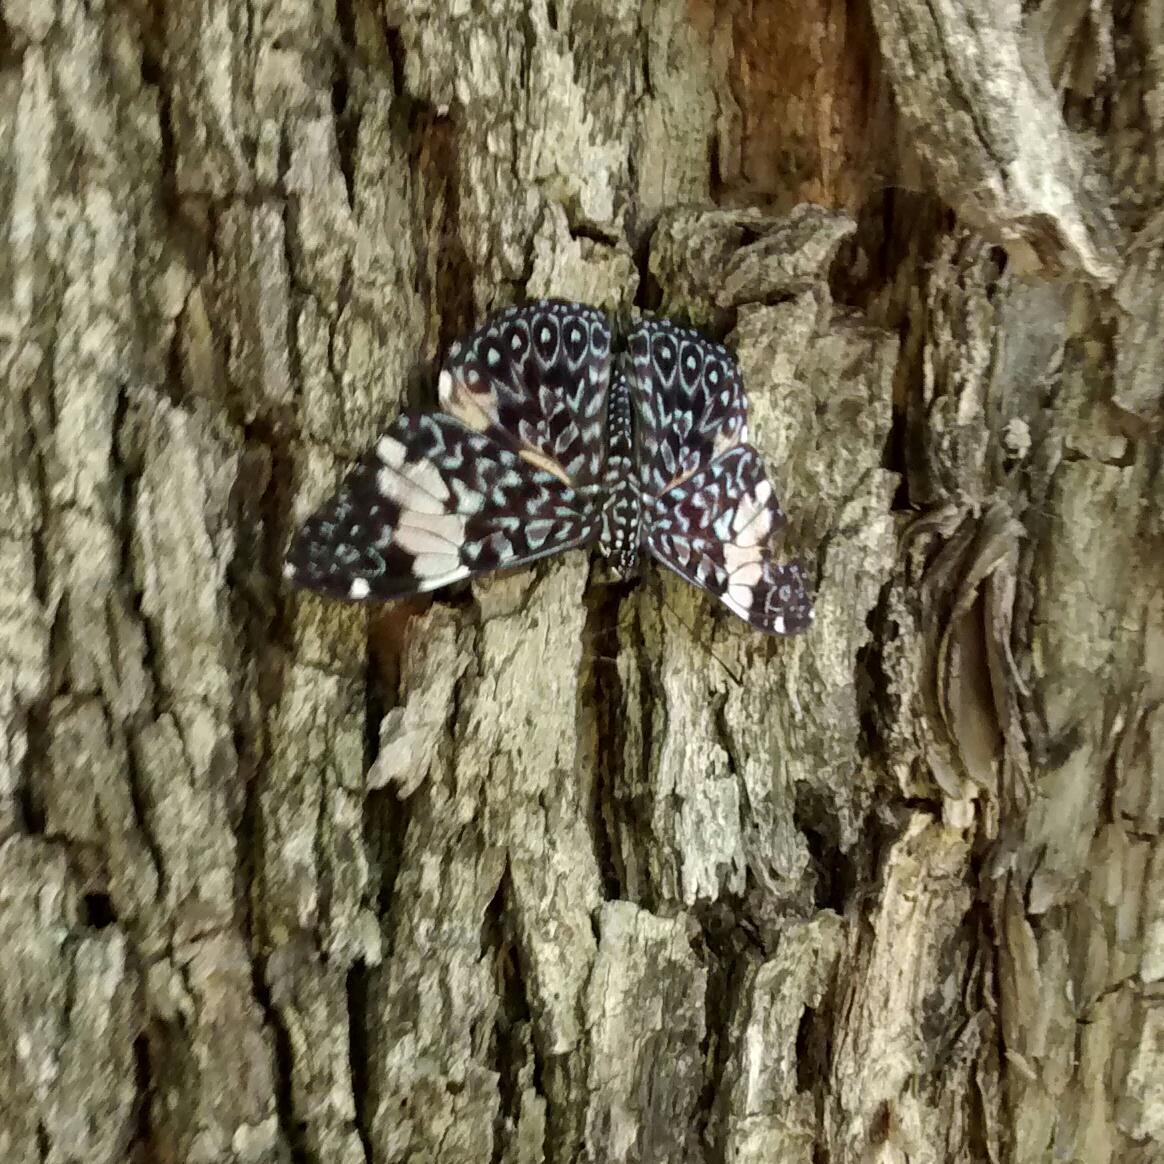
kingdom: Animalia
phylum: Arthropoda
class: Insecta
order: Lepidoptera
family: Nymphalidae
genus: Hamadryas
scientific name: Hamadryas amphinome
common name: Red cracker
